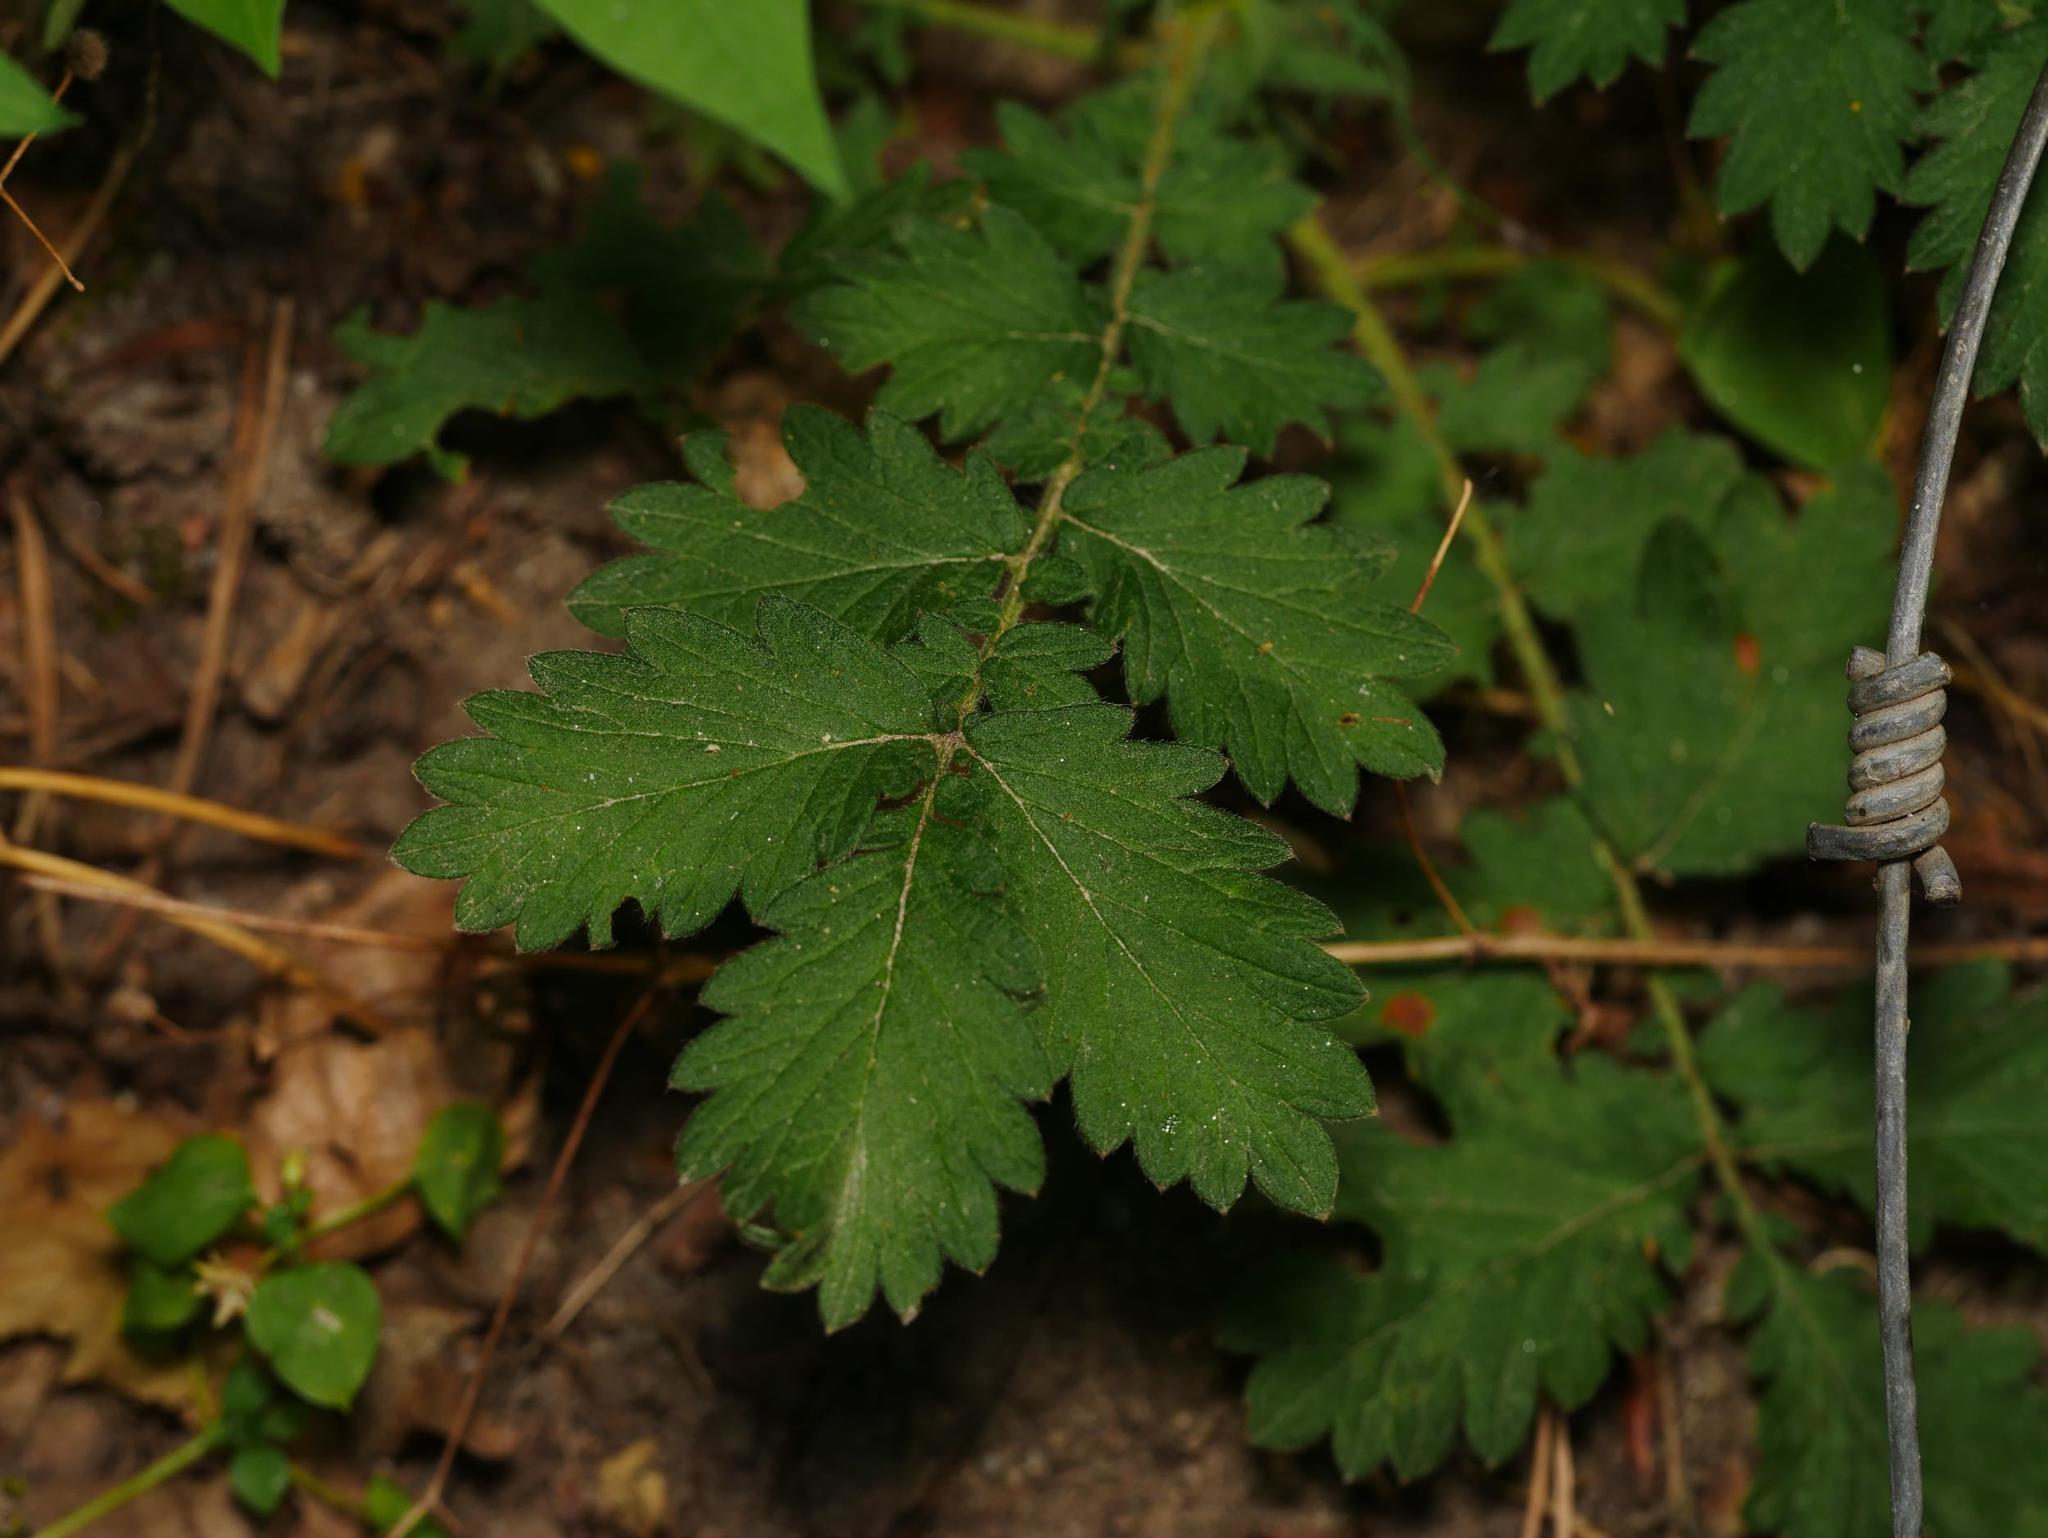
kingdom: Plantae
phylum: Tracheophyta
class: Magnoliopsida
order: Rosales
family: Rosaceae
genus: Agrimonia
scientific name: Agrimonia eupatoria
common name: Agrimony
